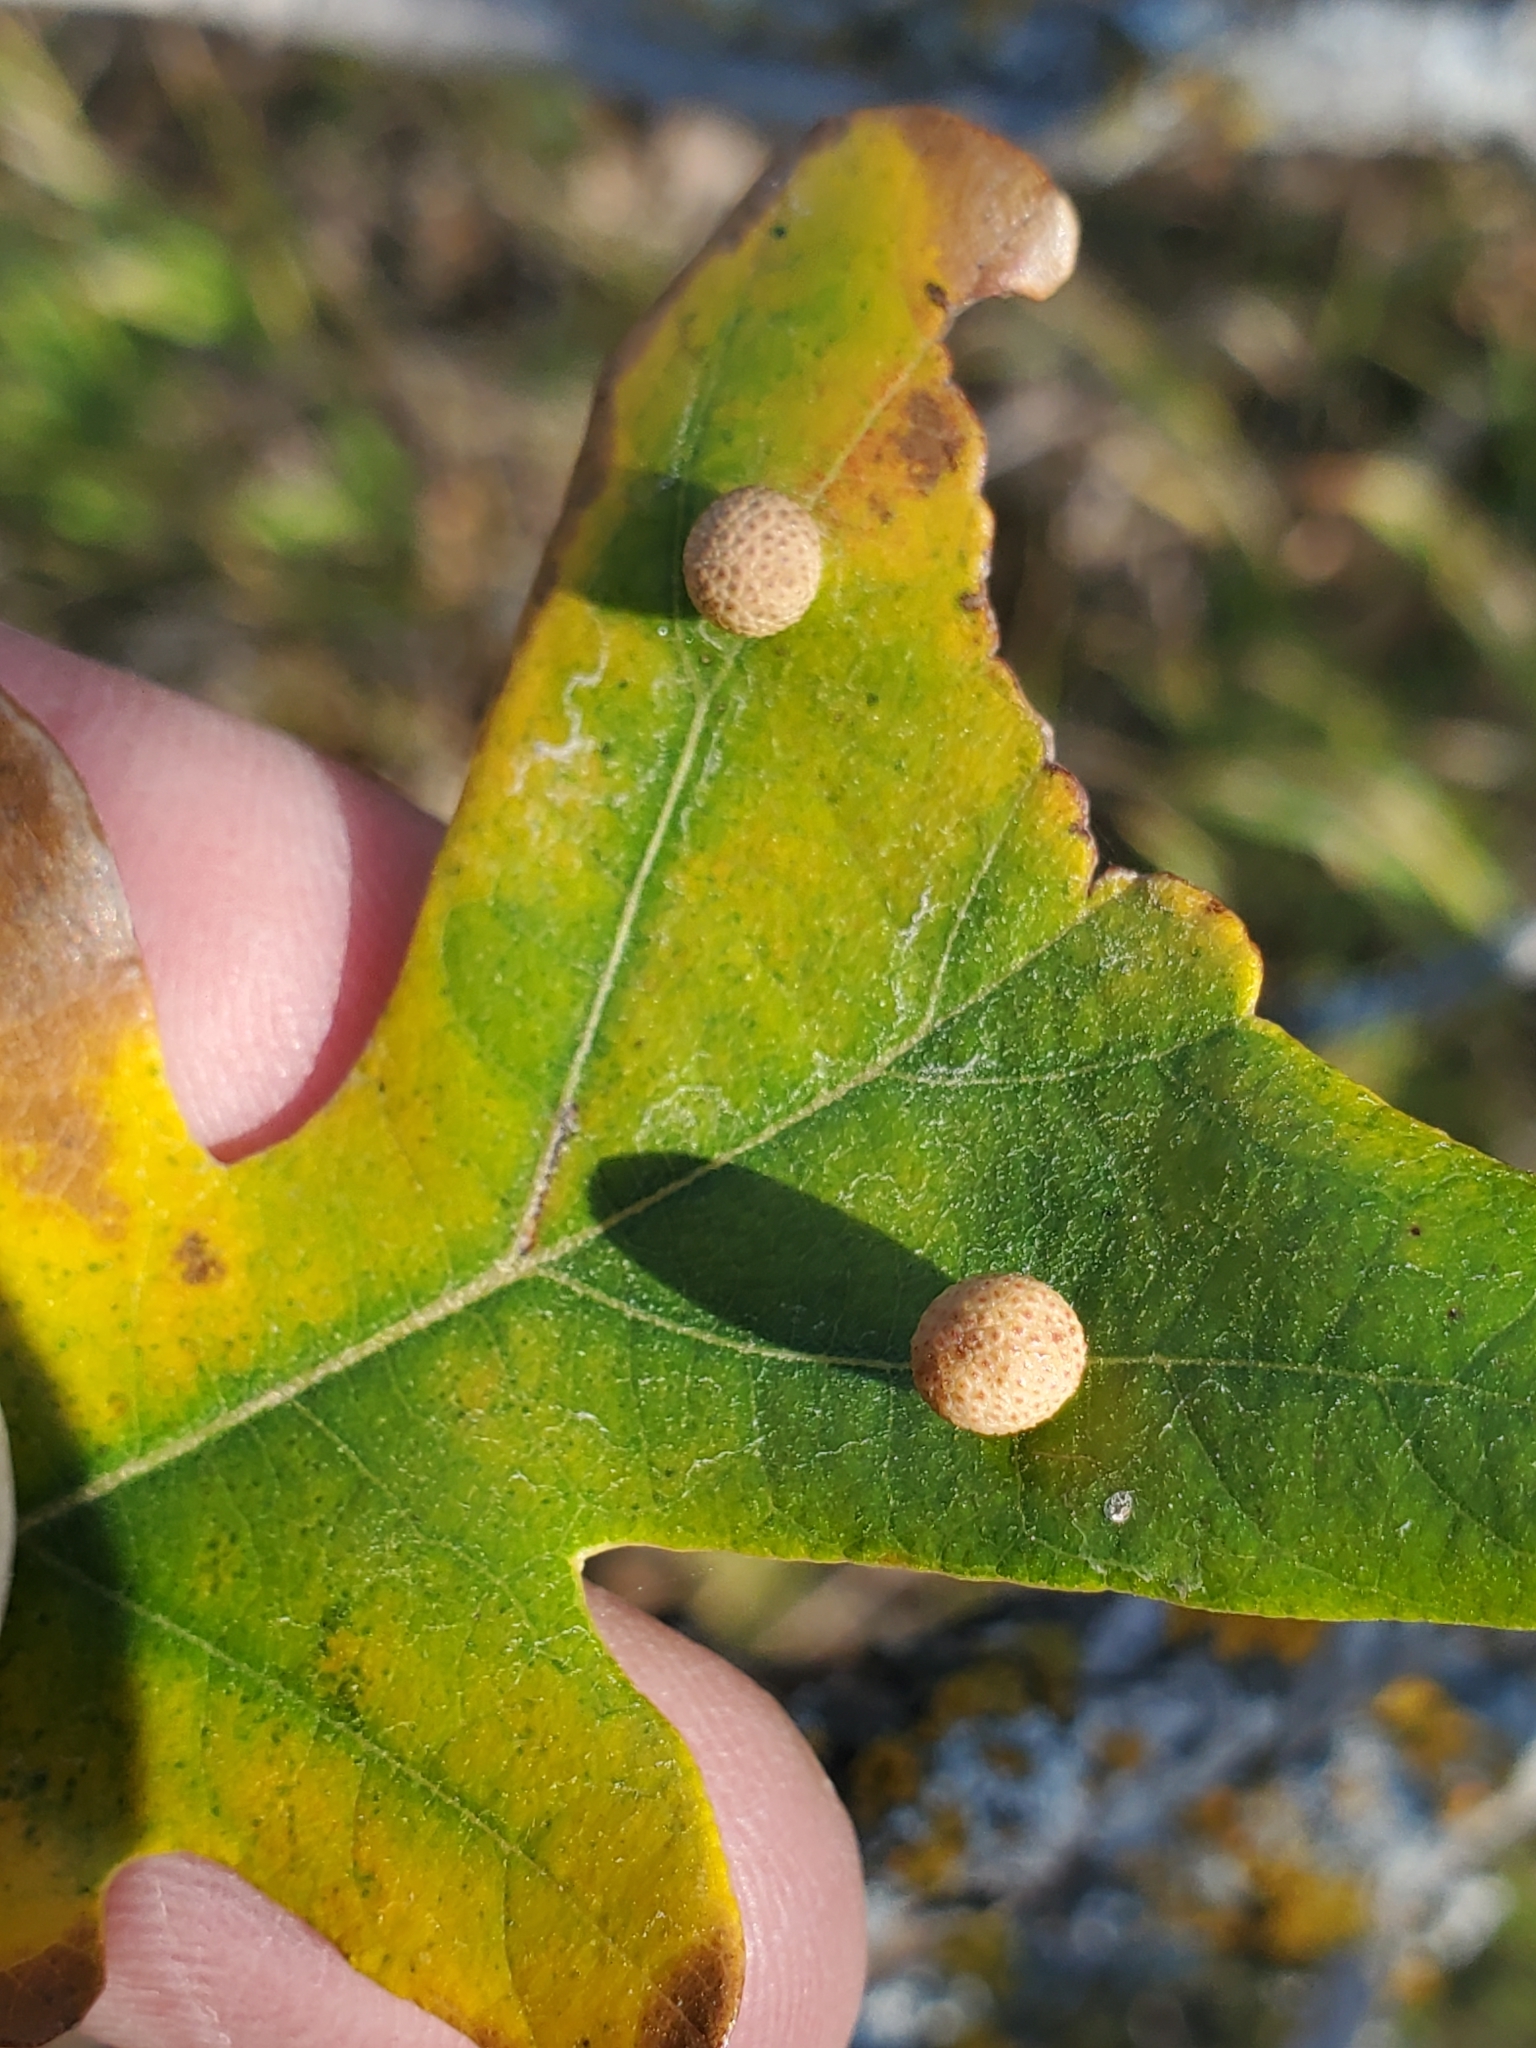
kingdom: Animalia
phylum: Arthropoda
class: Insecta
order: Hymenoptera
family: Cynipidae
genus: Acraspis
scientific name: Acraspis quercushirta
